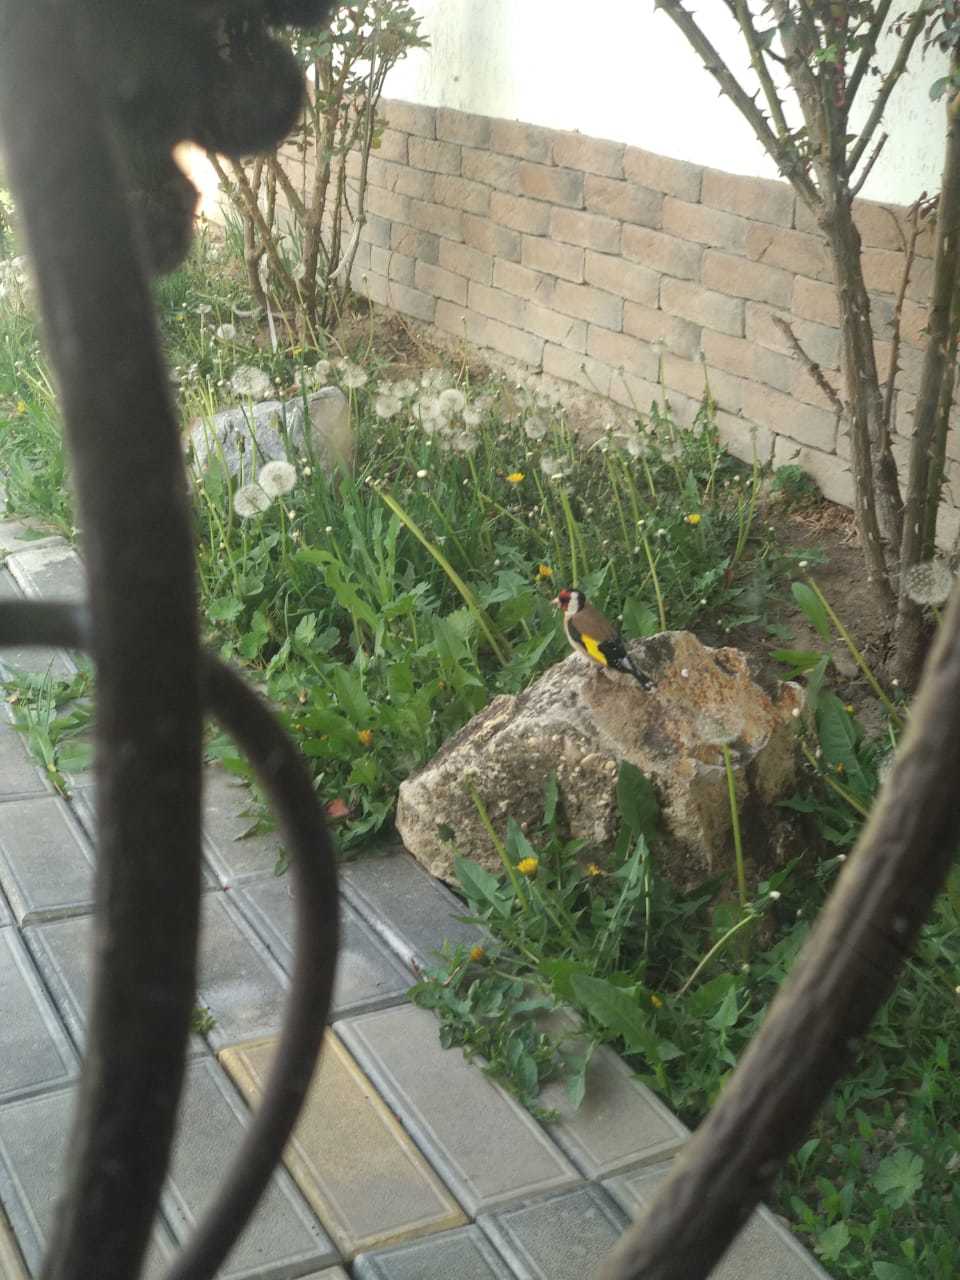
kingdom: Animalia
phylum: Chordata
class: Aves
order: Passeriformes
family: Fringillidae
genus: Carduelis
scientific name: Carduelis carduelis
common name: European goldfinch
